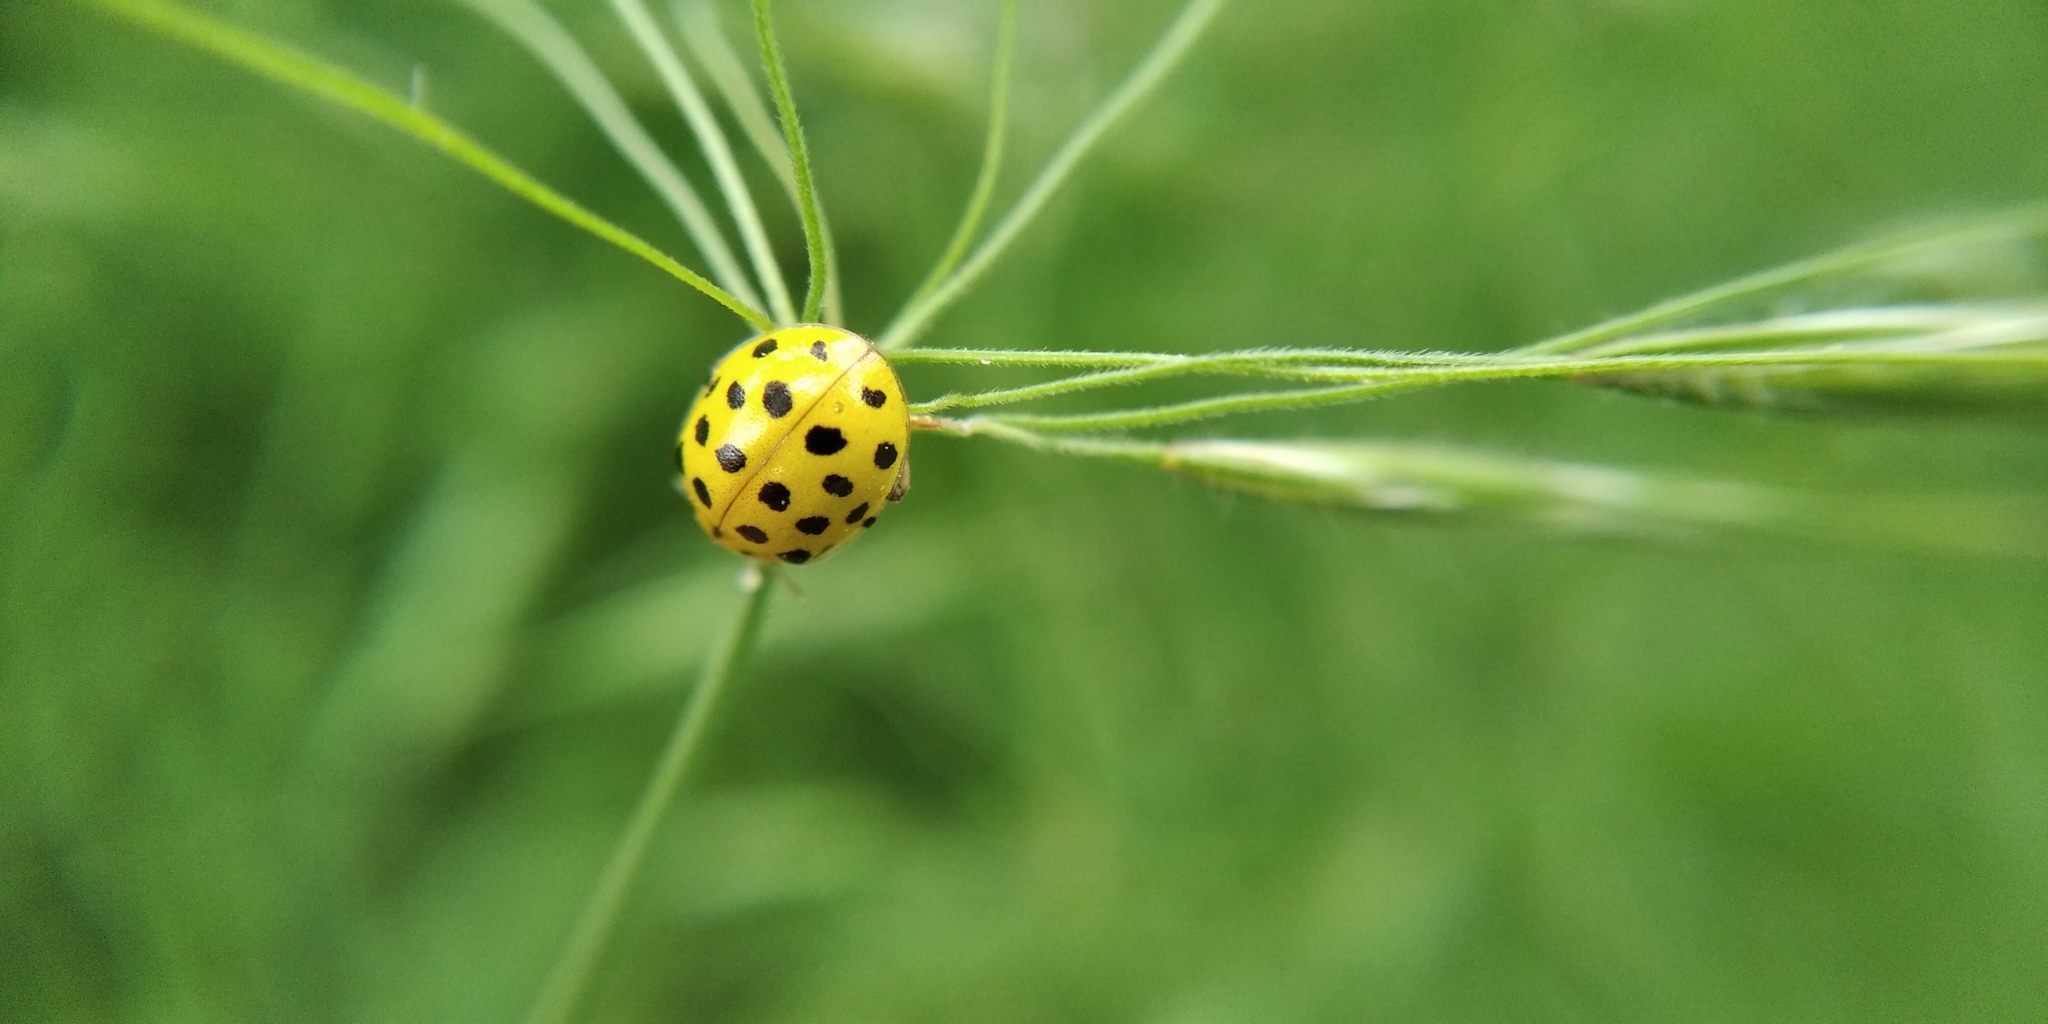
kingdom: Animalia
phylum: Arthropoda
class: Insecta
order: Coleoptera
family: Coccinellidae
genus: Psyllobora
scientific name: Psyllobora vigintiduopunctata
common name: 22-spot ladybird
